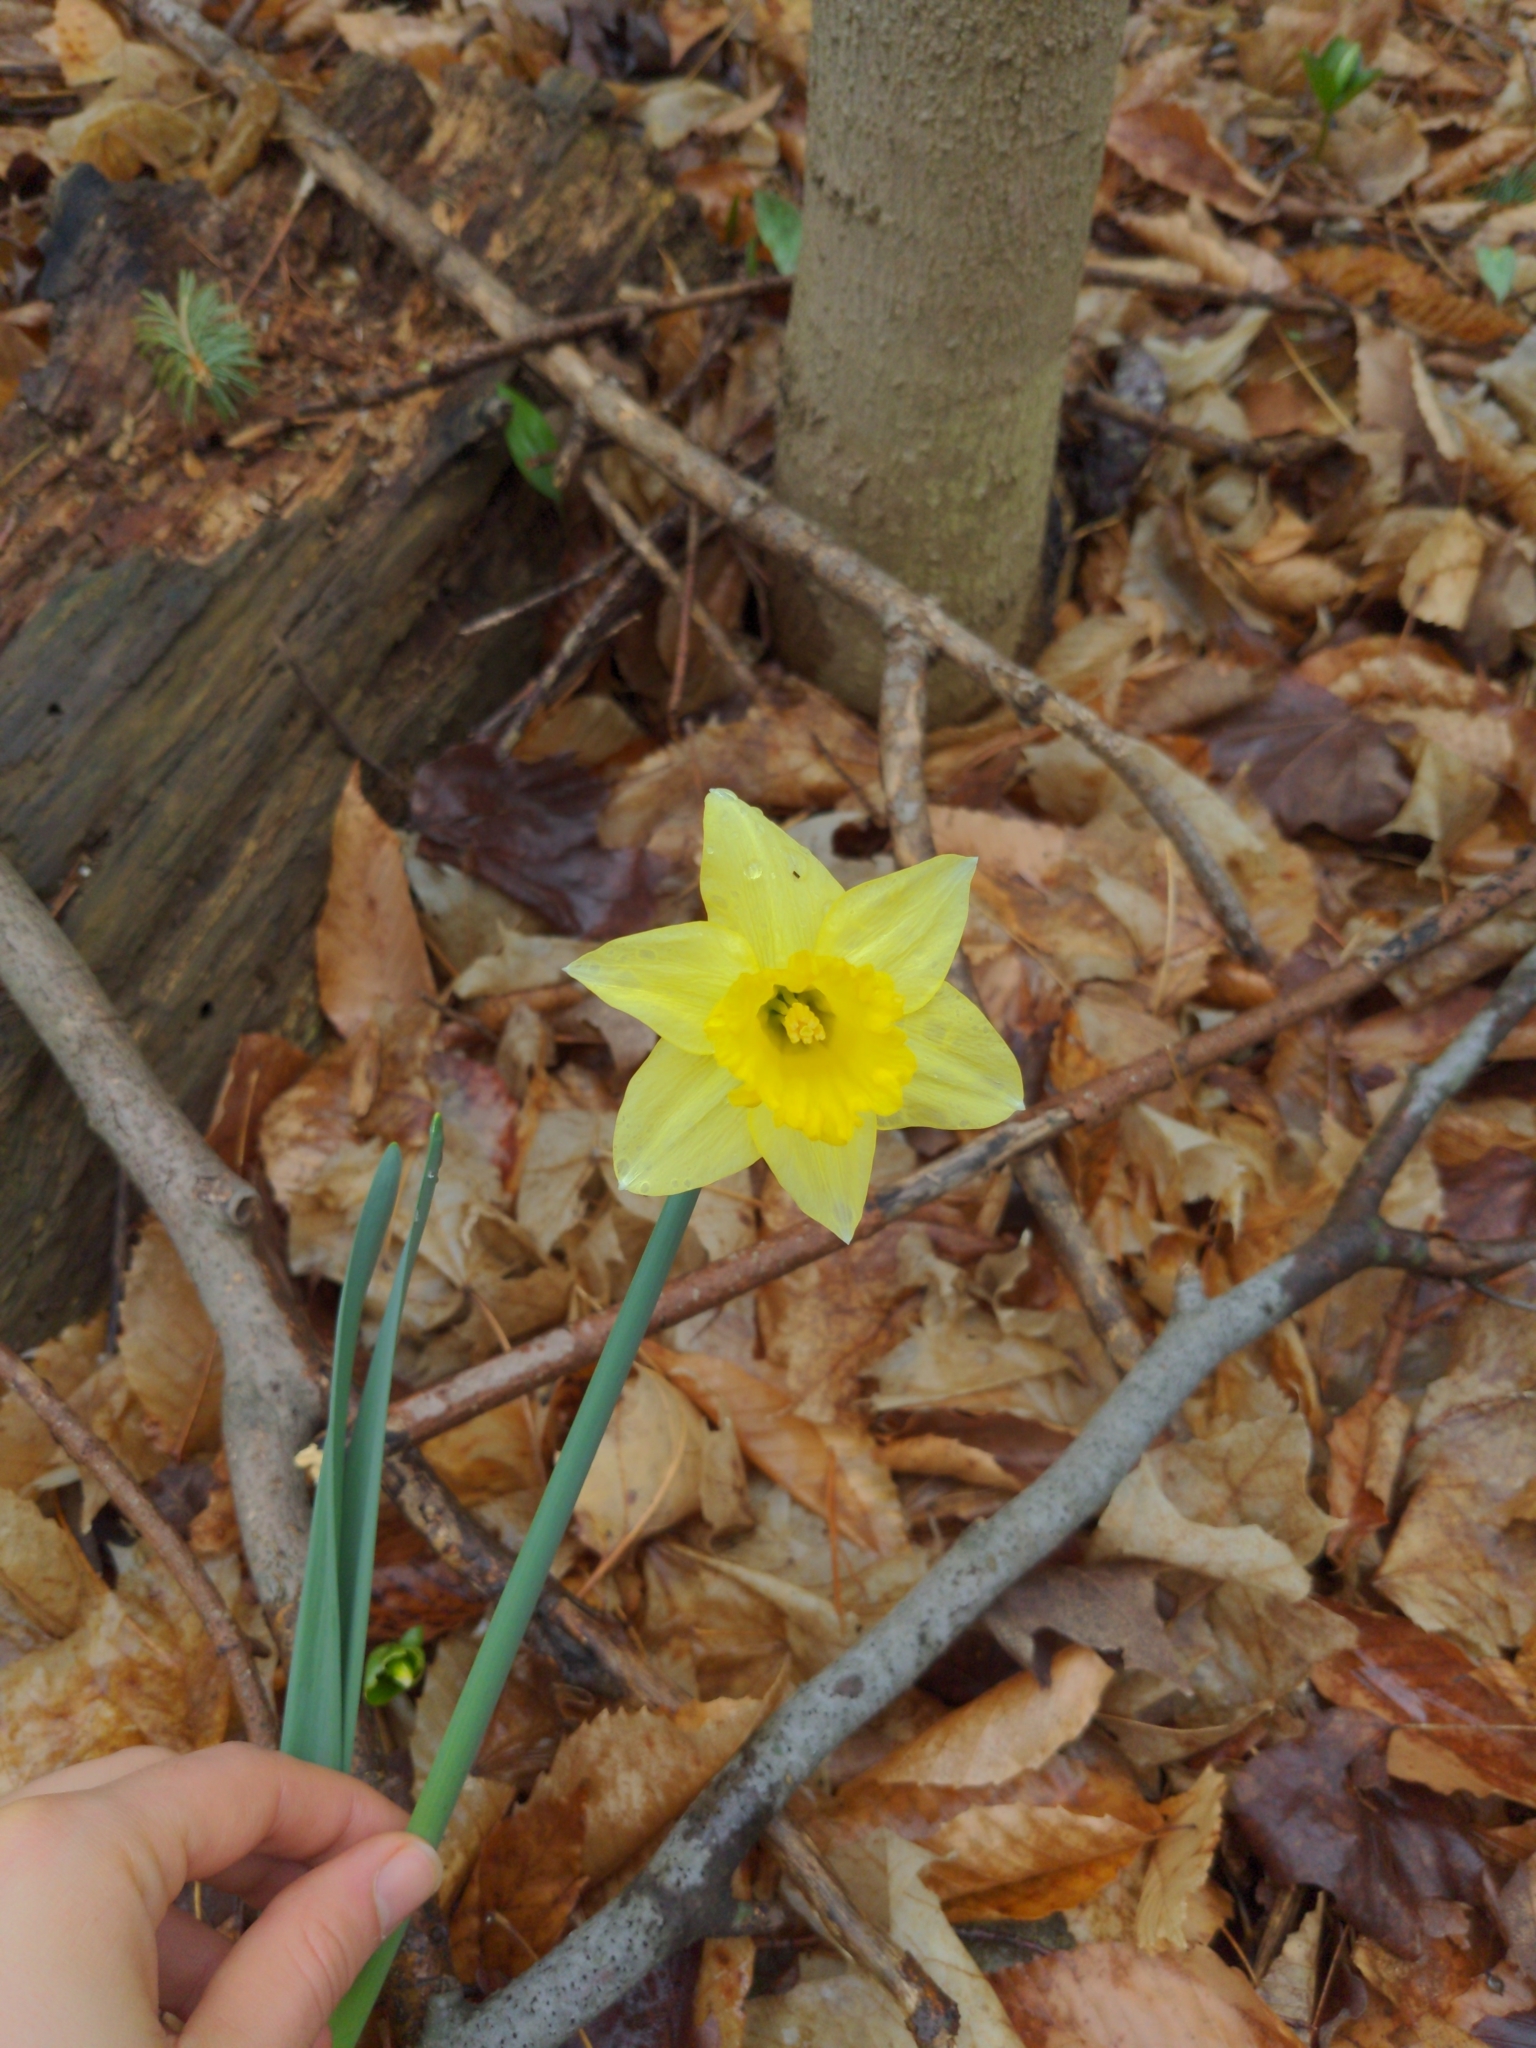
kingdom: Plantae
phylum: Tracheophyta
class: Liliopsida
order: Asparagales
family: Amaryllidaceae
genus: Narcissus
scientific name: Narcissus pseudonarcissus
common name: Daffodil
